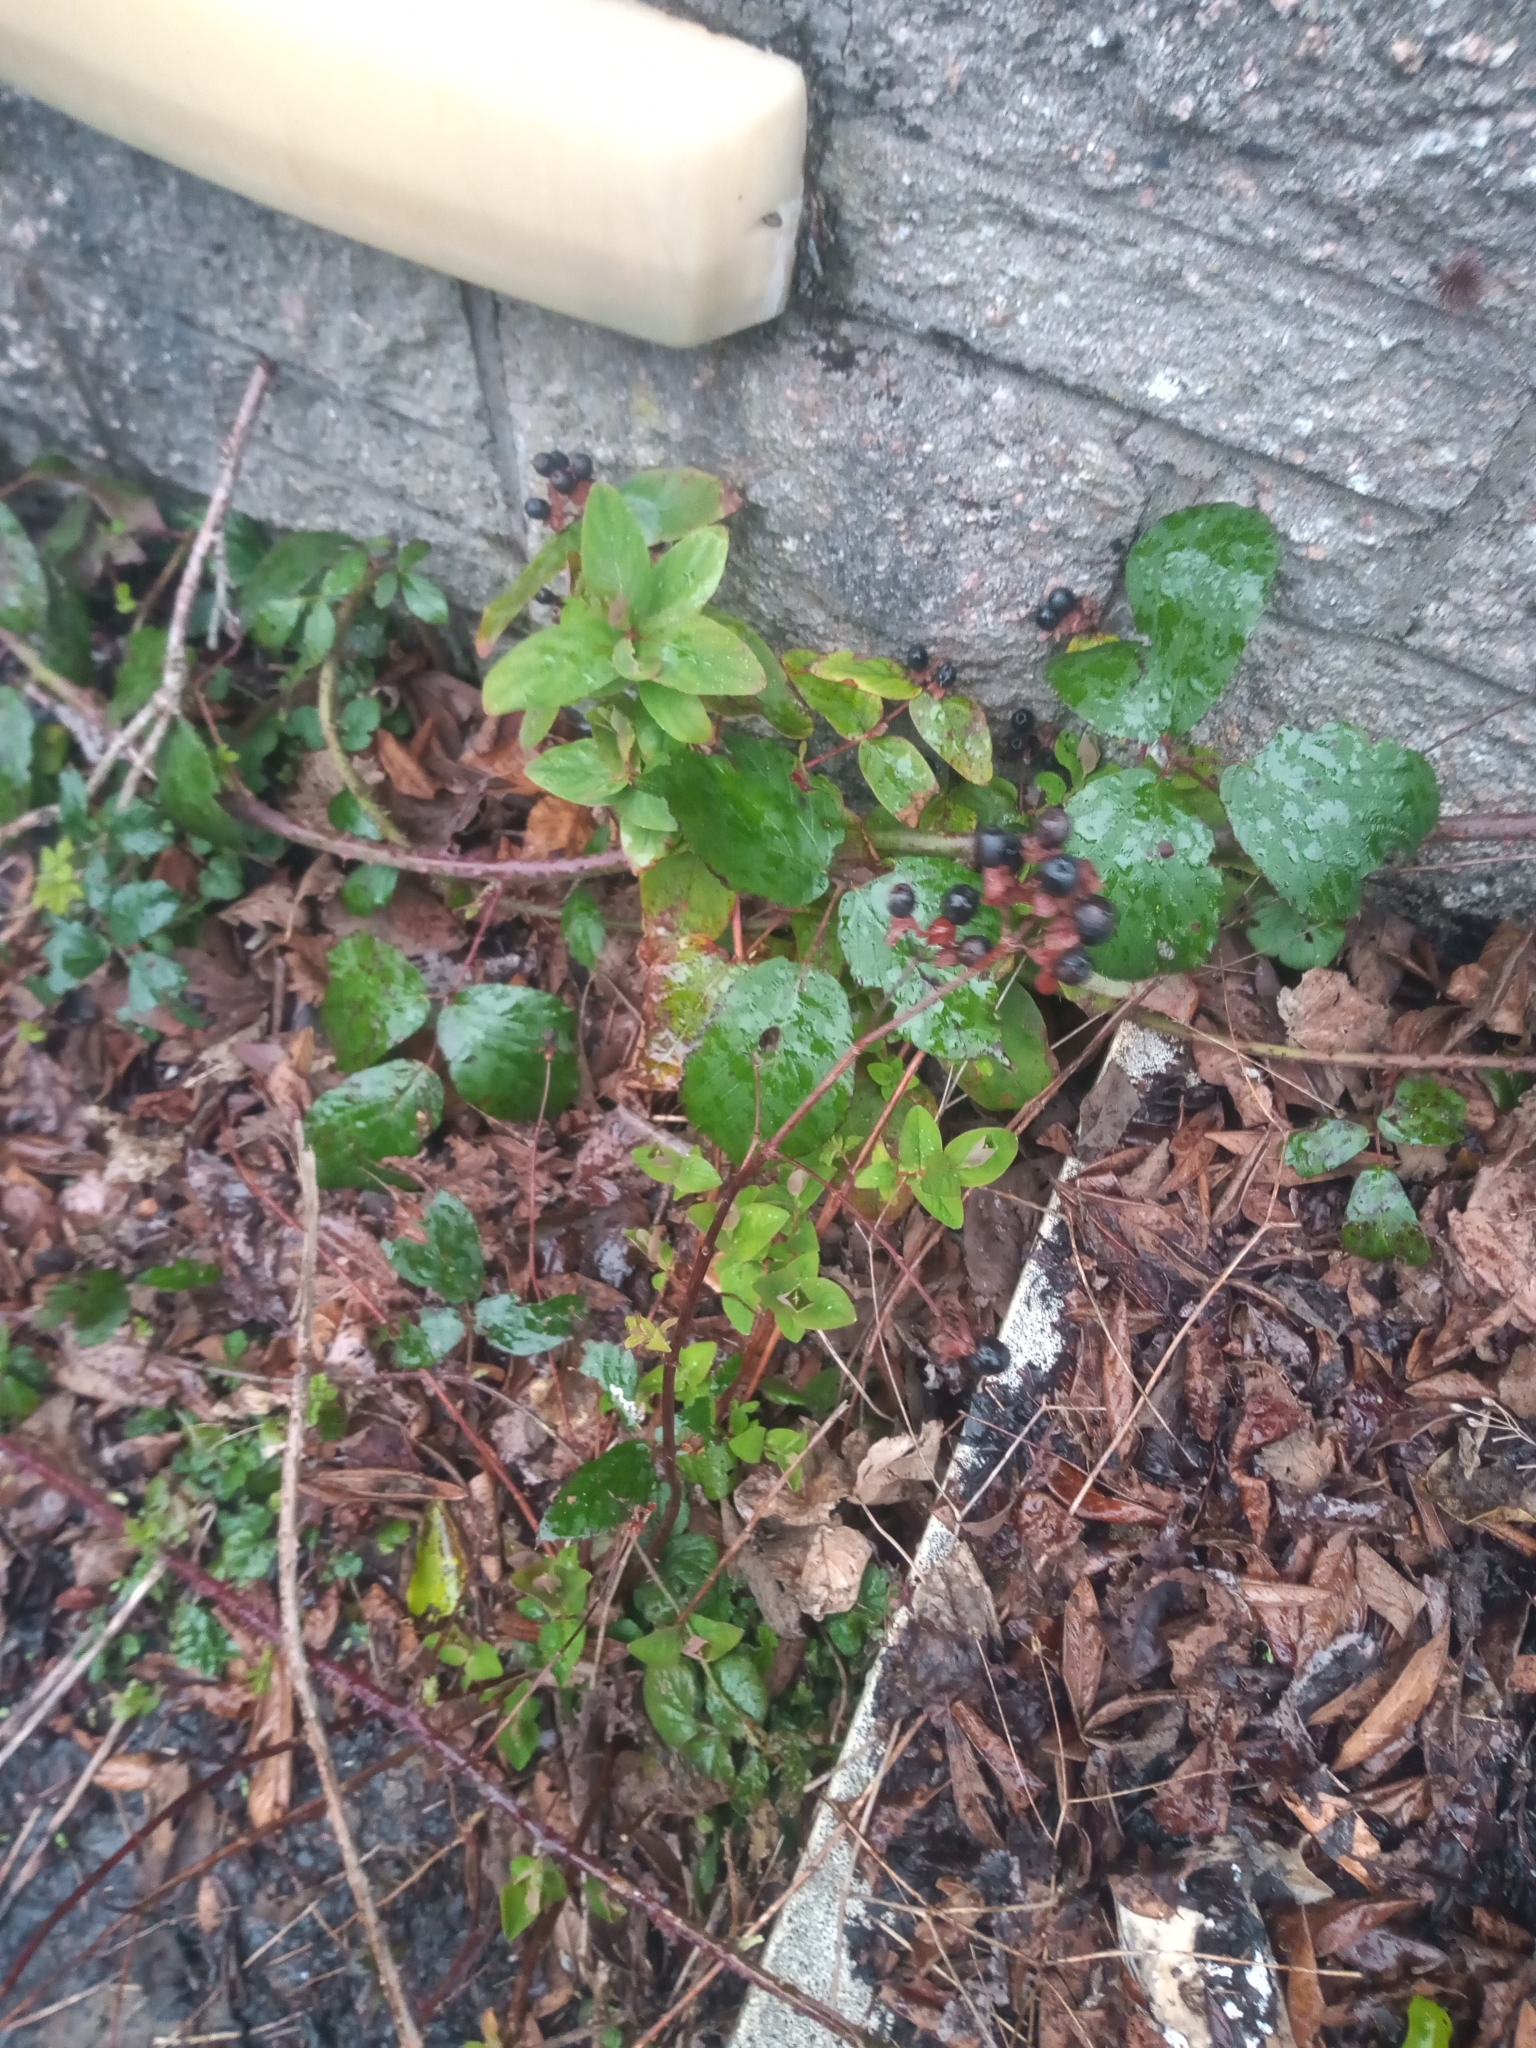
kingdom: Plantae
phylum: Tracheophyta
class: Magnoliopsida
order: Malpighiales
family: Hypericaceae
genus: Hypericum
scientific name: Hypericum androsaemum
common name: Sweet-amber
